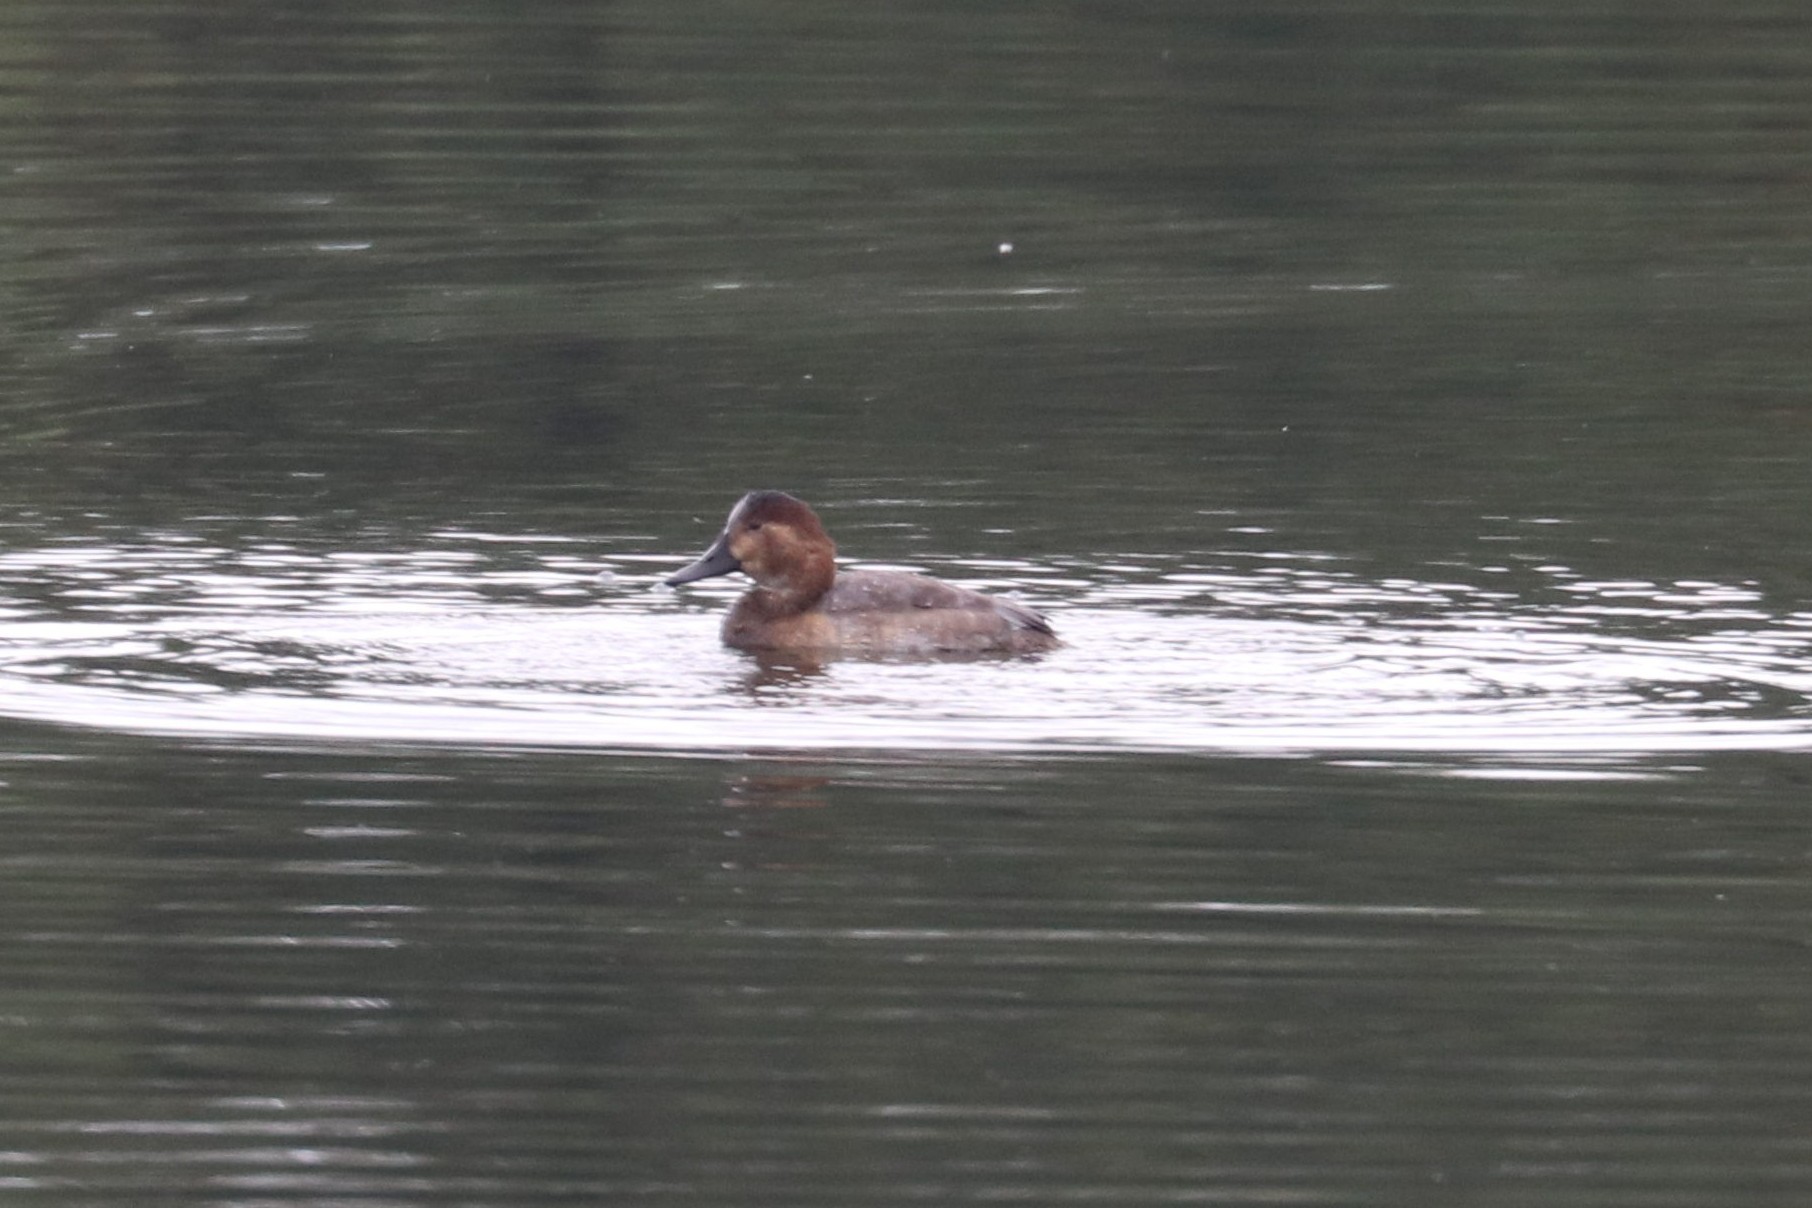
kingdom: Animalia
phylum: Chordata
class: Aves
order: Anseriformes
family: Anatidae
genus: Aythya
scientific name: Aythya ferina
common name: Common pochard
